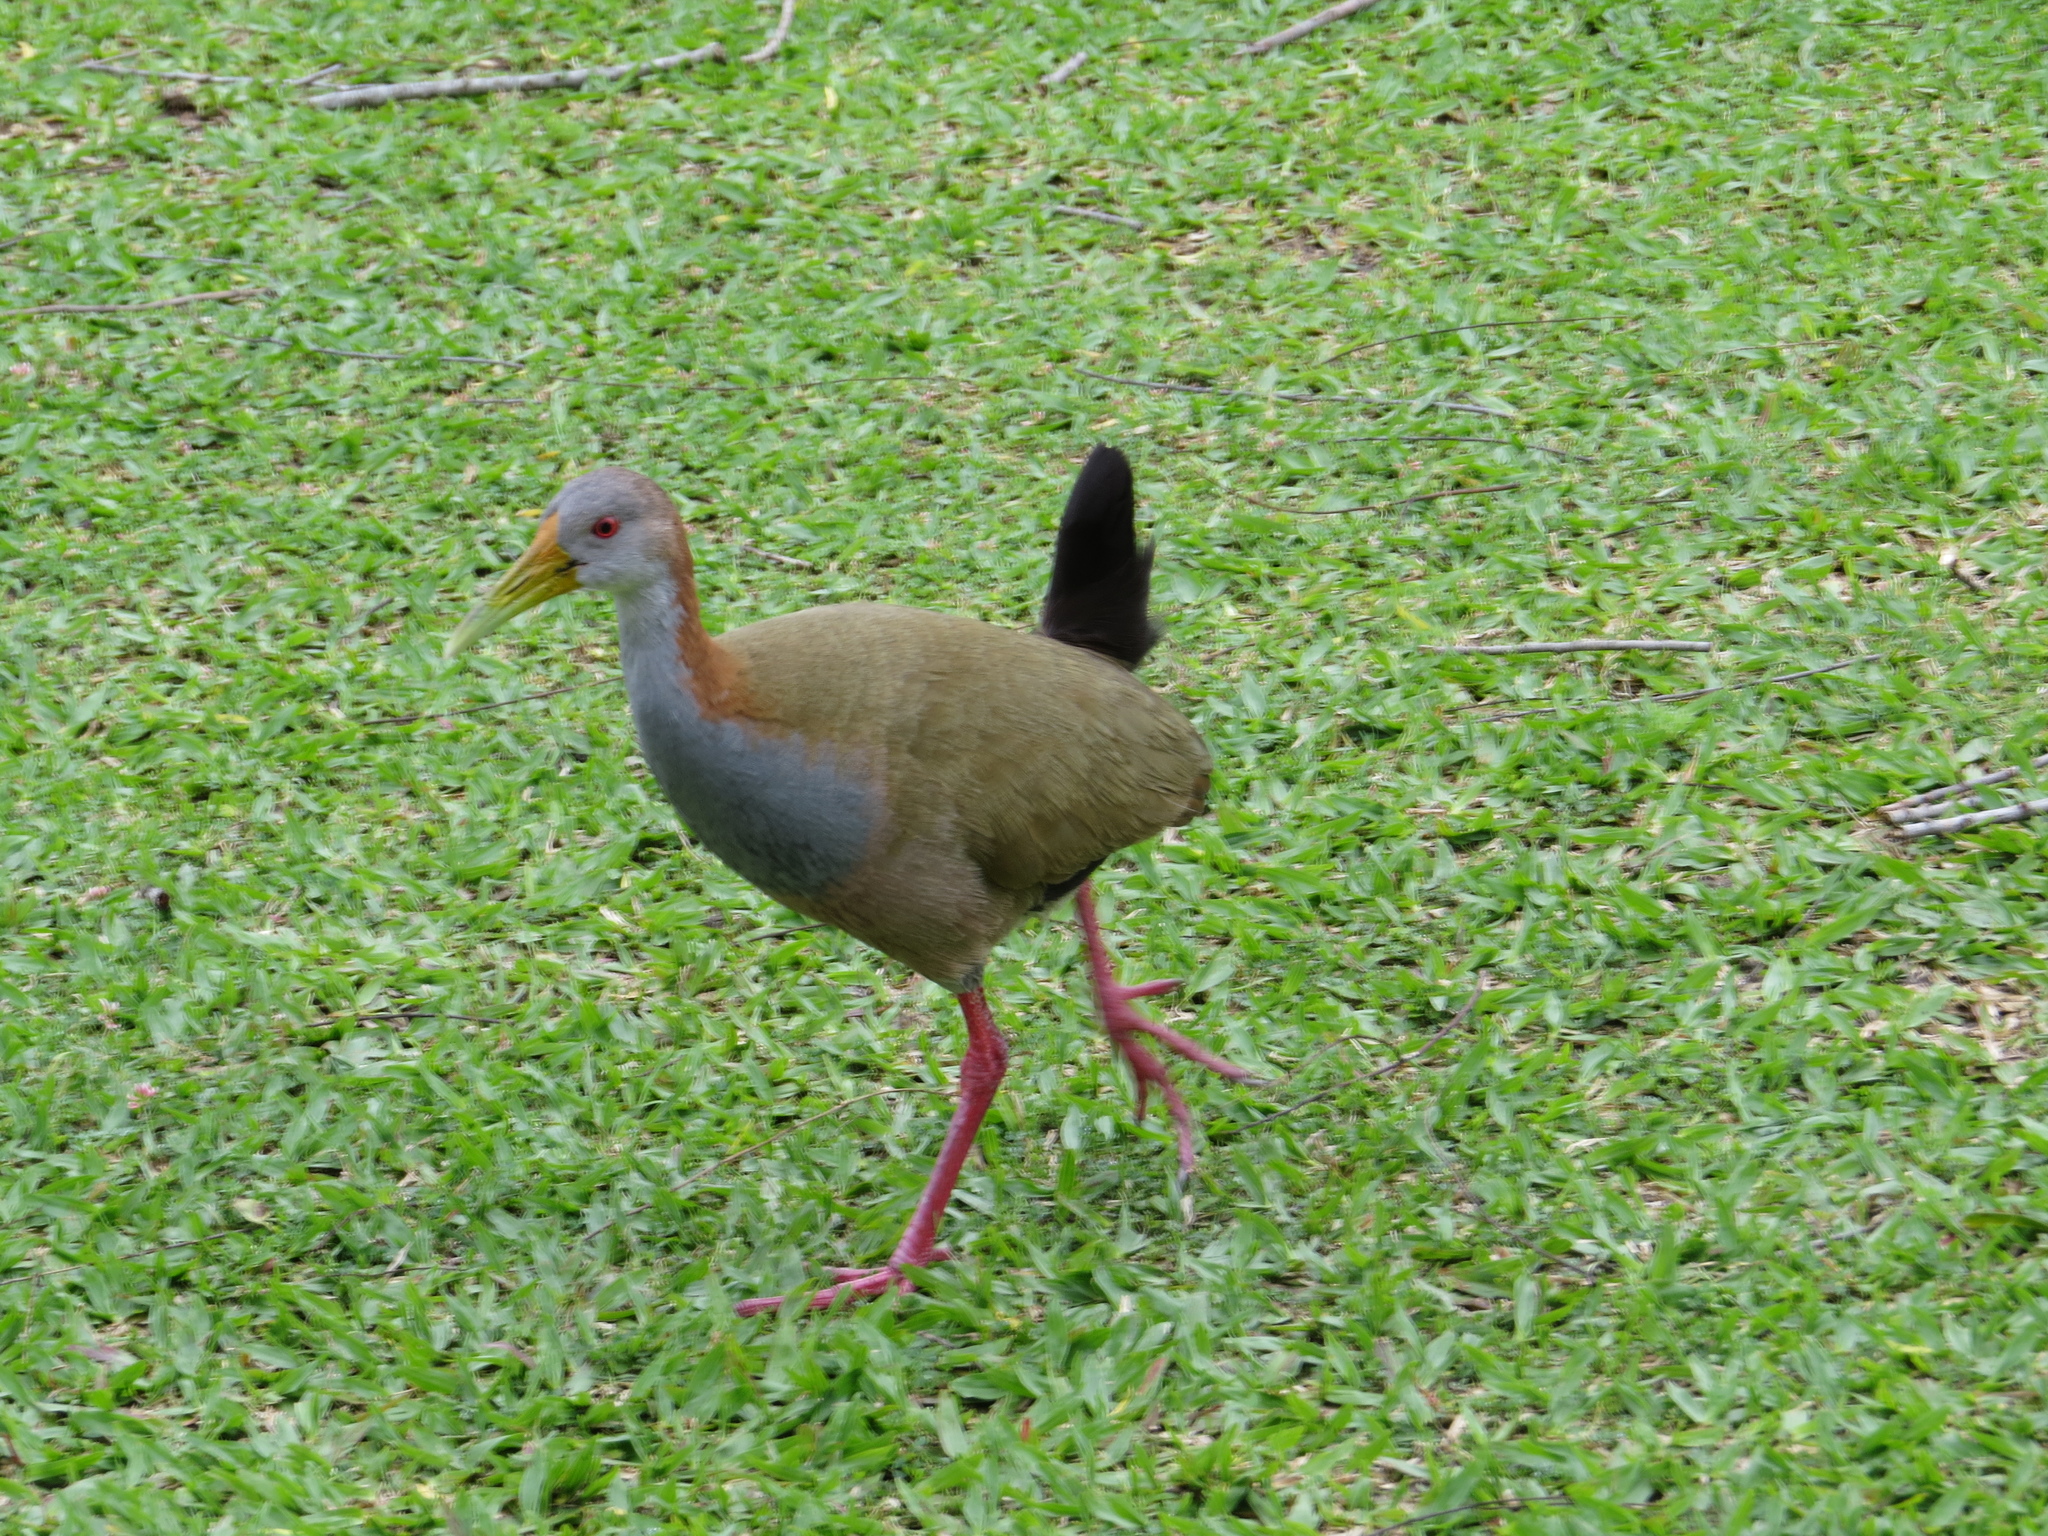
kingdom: Animalia
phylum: Chordata
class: Aves
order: Gruiformes
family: Rallidae
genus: Aramides
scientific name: Aramides ypecaha
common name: Giant wood rail
